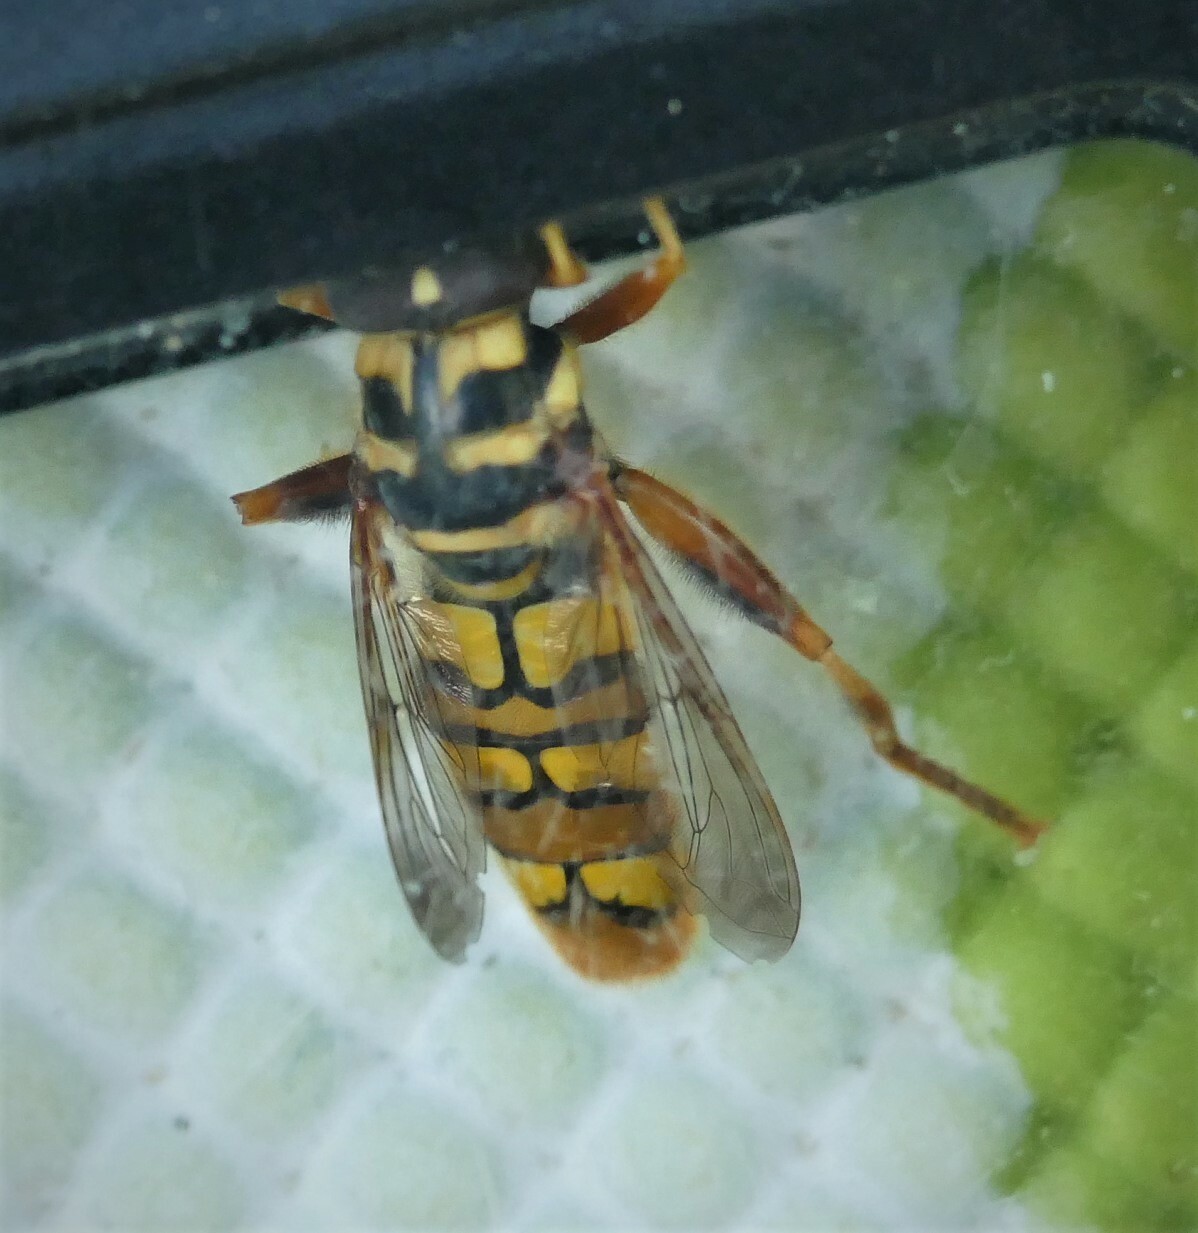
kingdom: Animalia
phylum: Arthropoda
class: Insecta
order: Diptera
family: Syrphidae
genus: Milesia
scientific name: Milesia virginiensis
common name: Virginia giant
